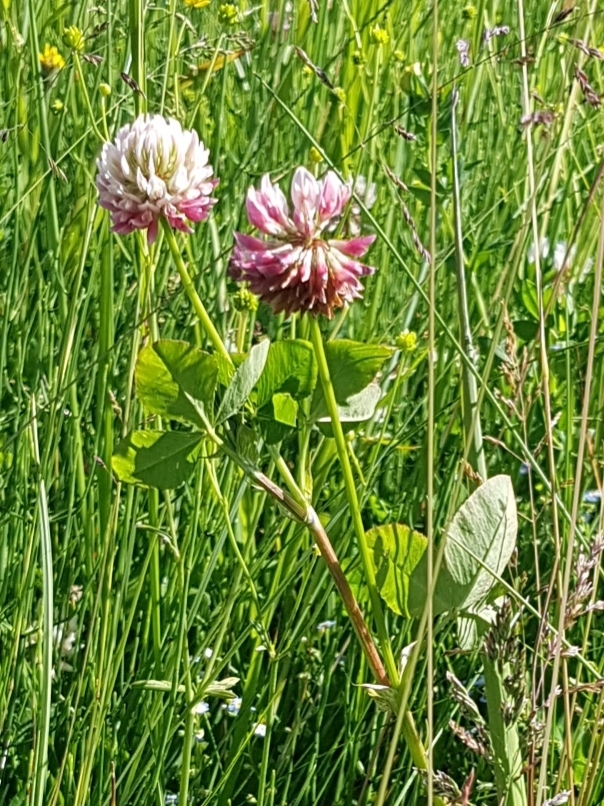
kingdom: Plantae
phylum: Tracheophyta
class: Magnoliopsida
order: Fabales
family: Fabaceae
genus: Trifolium
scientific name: Trifolium hybridum
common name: Alsike clover
